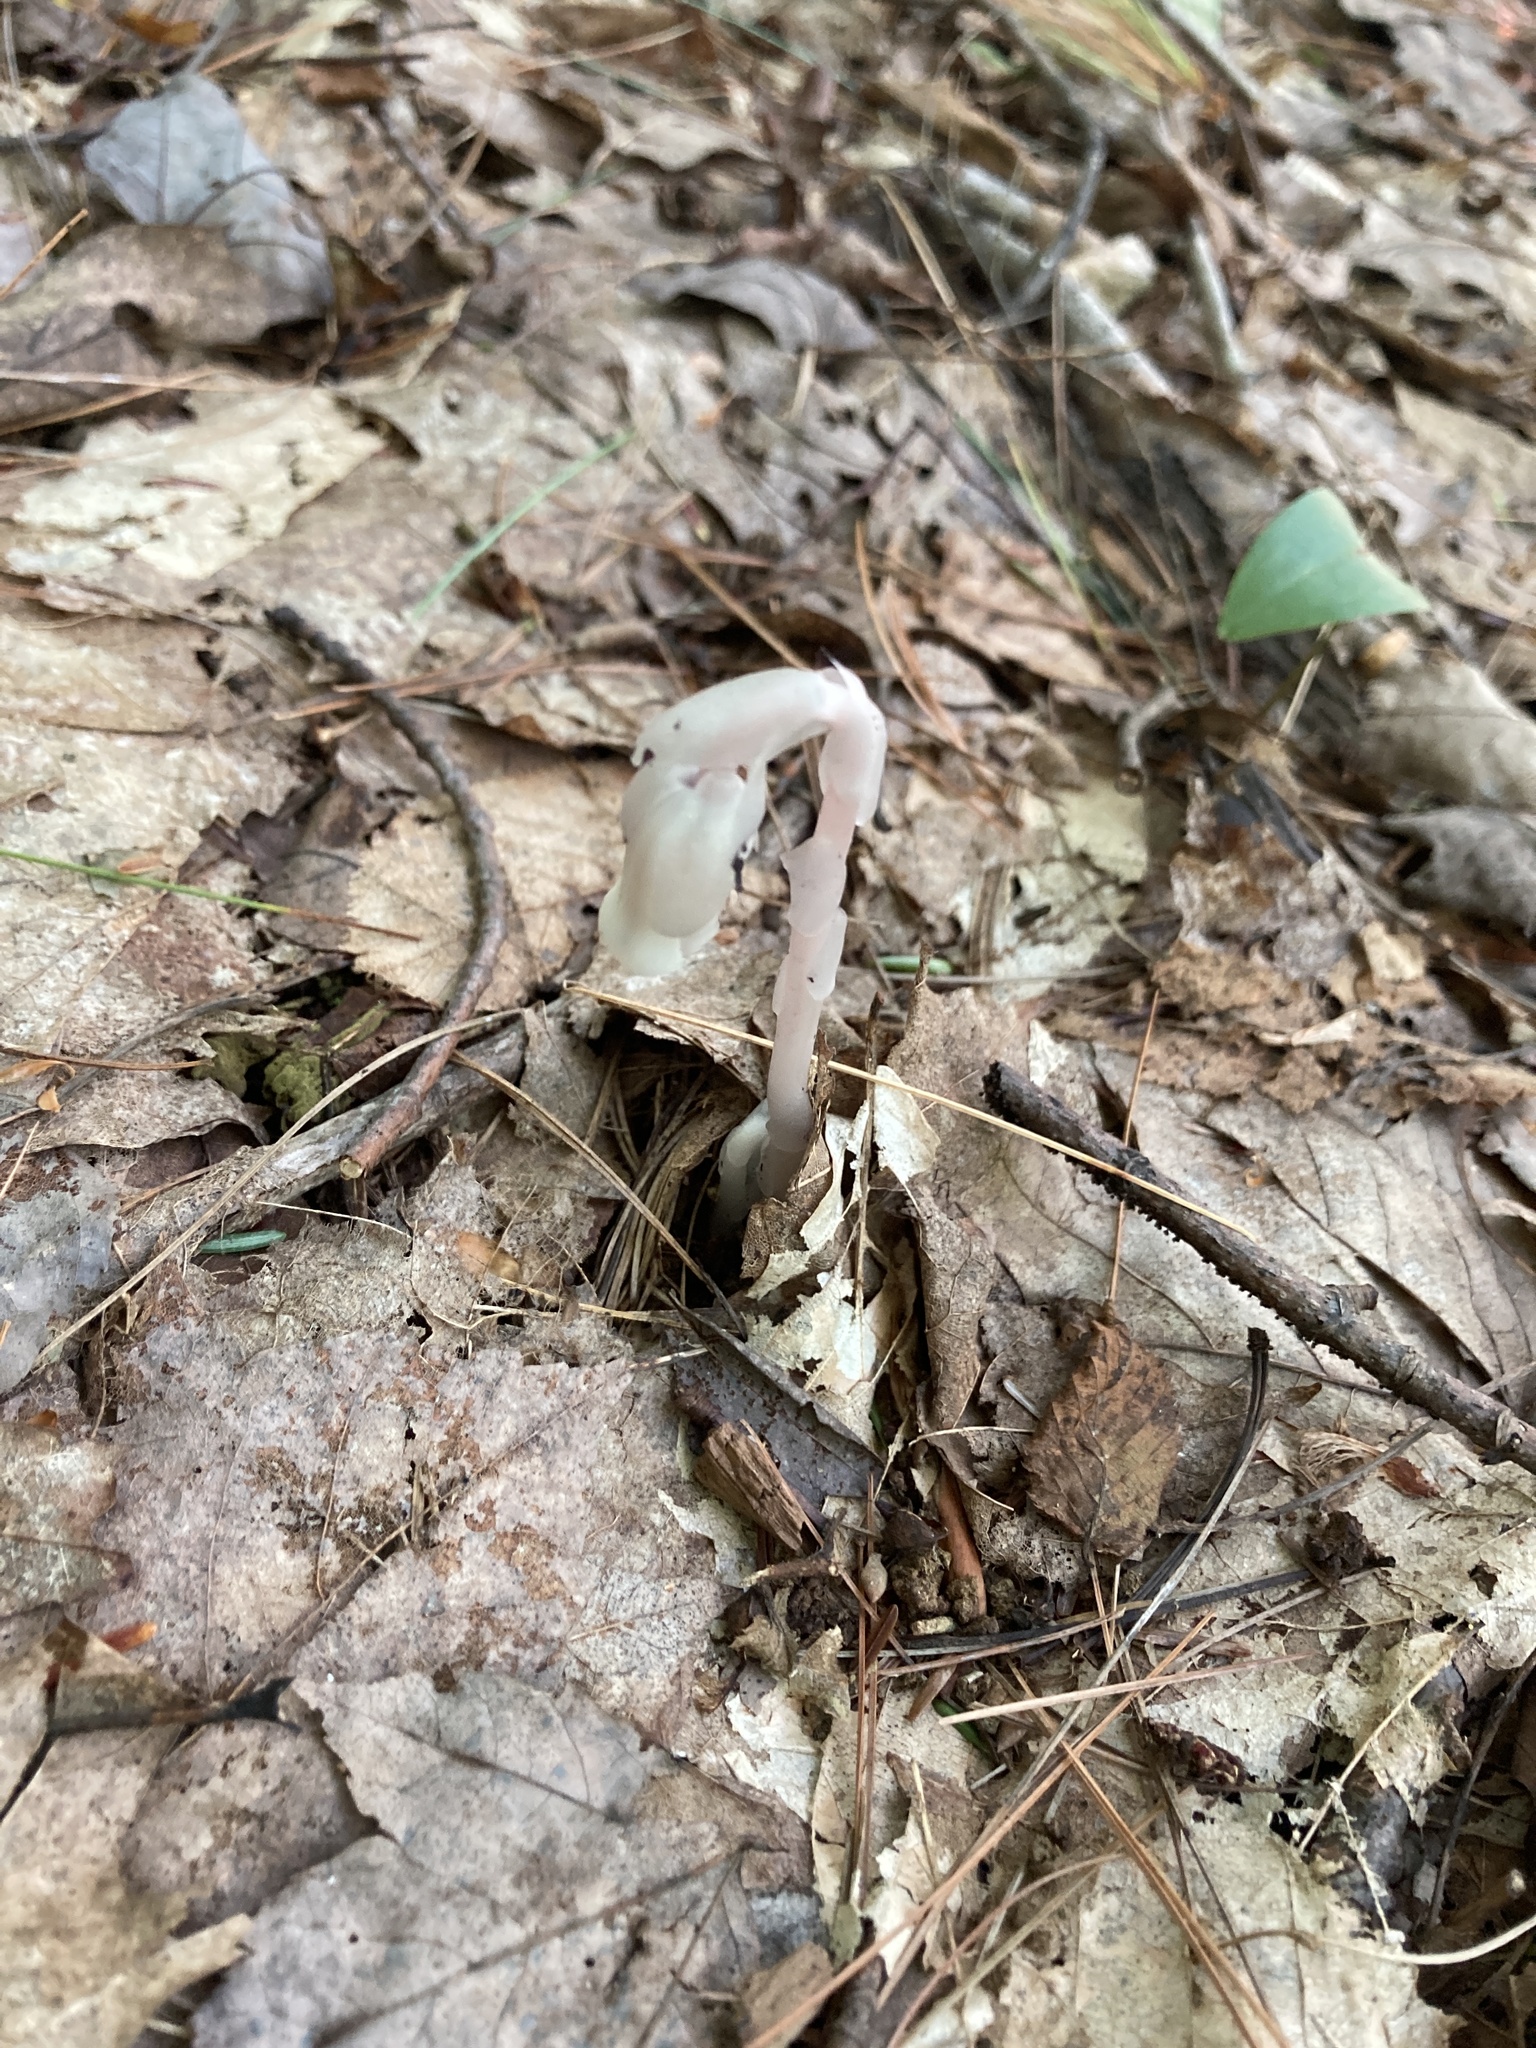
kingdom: Plantae
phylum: Tracheophyta
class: Magnoliopsida
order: Ericales
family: Ericaceae
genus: Monotropa
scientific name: Monotropa uniflora
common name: Convulsion root
